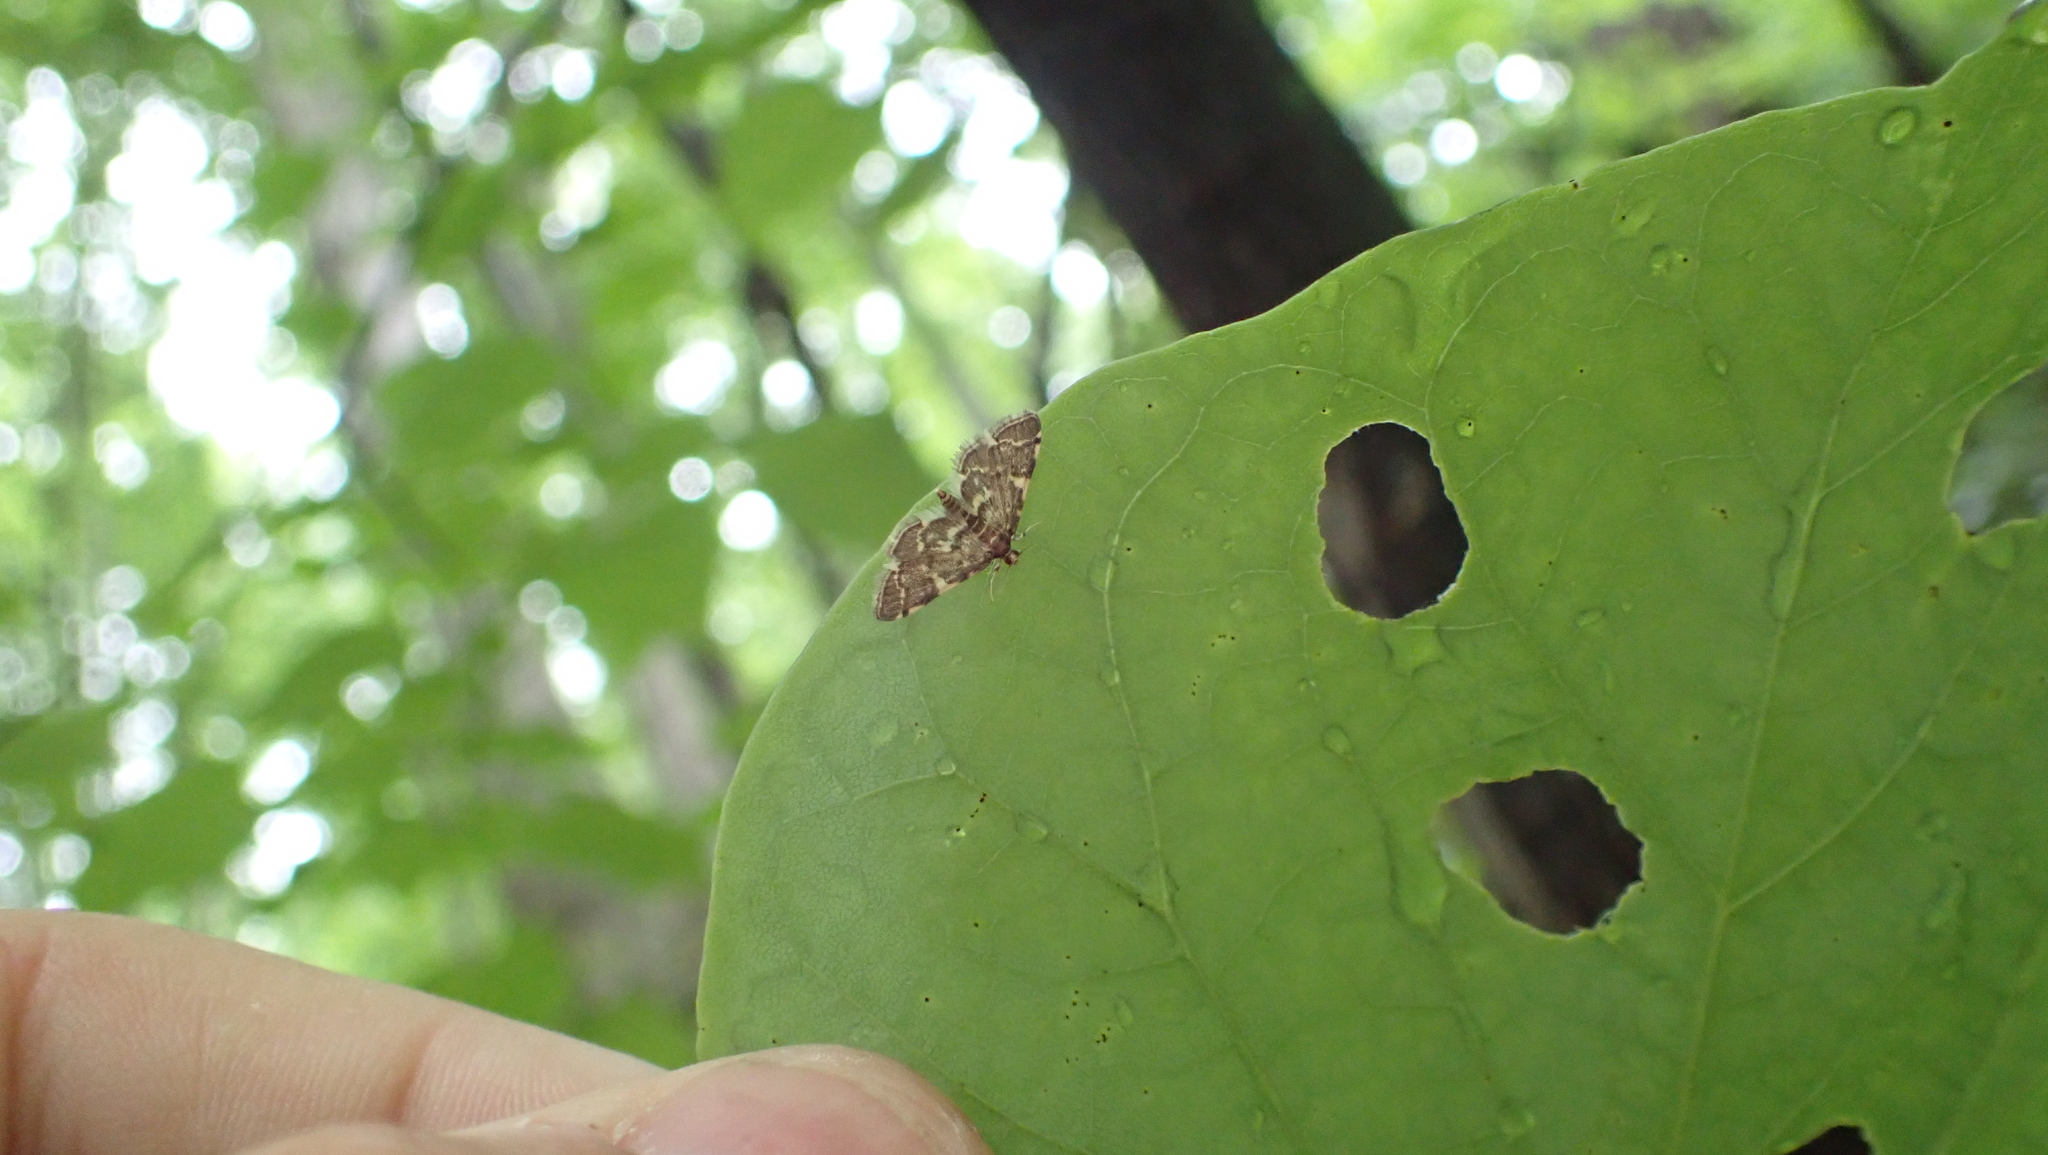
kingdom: Animalia
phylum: Arthropoda
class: Insecta
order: Lepidoptera
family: Crambidae
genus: Anageshna
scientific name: Anageshna primordialis
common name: Yellow-spotted webworm moth
